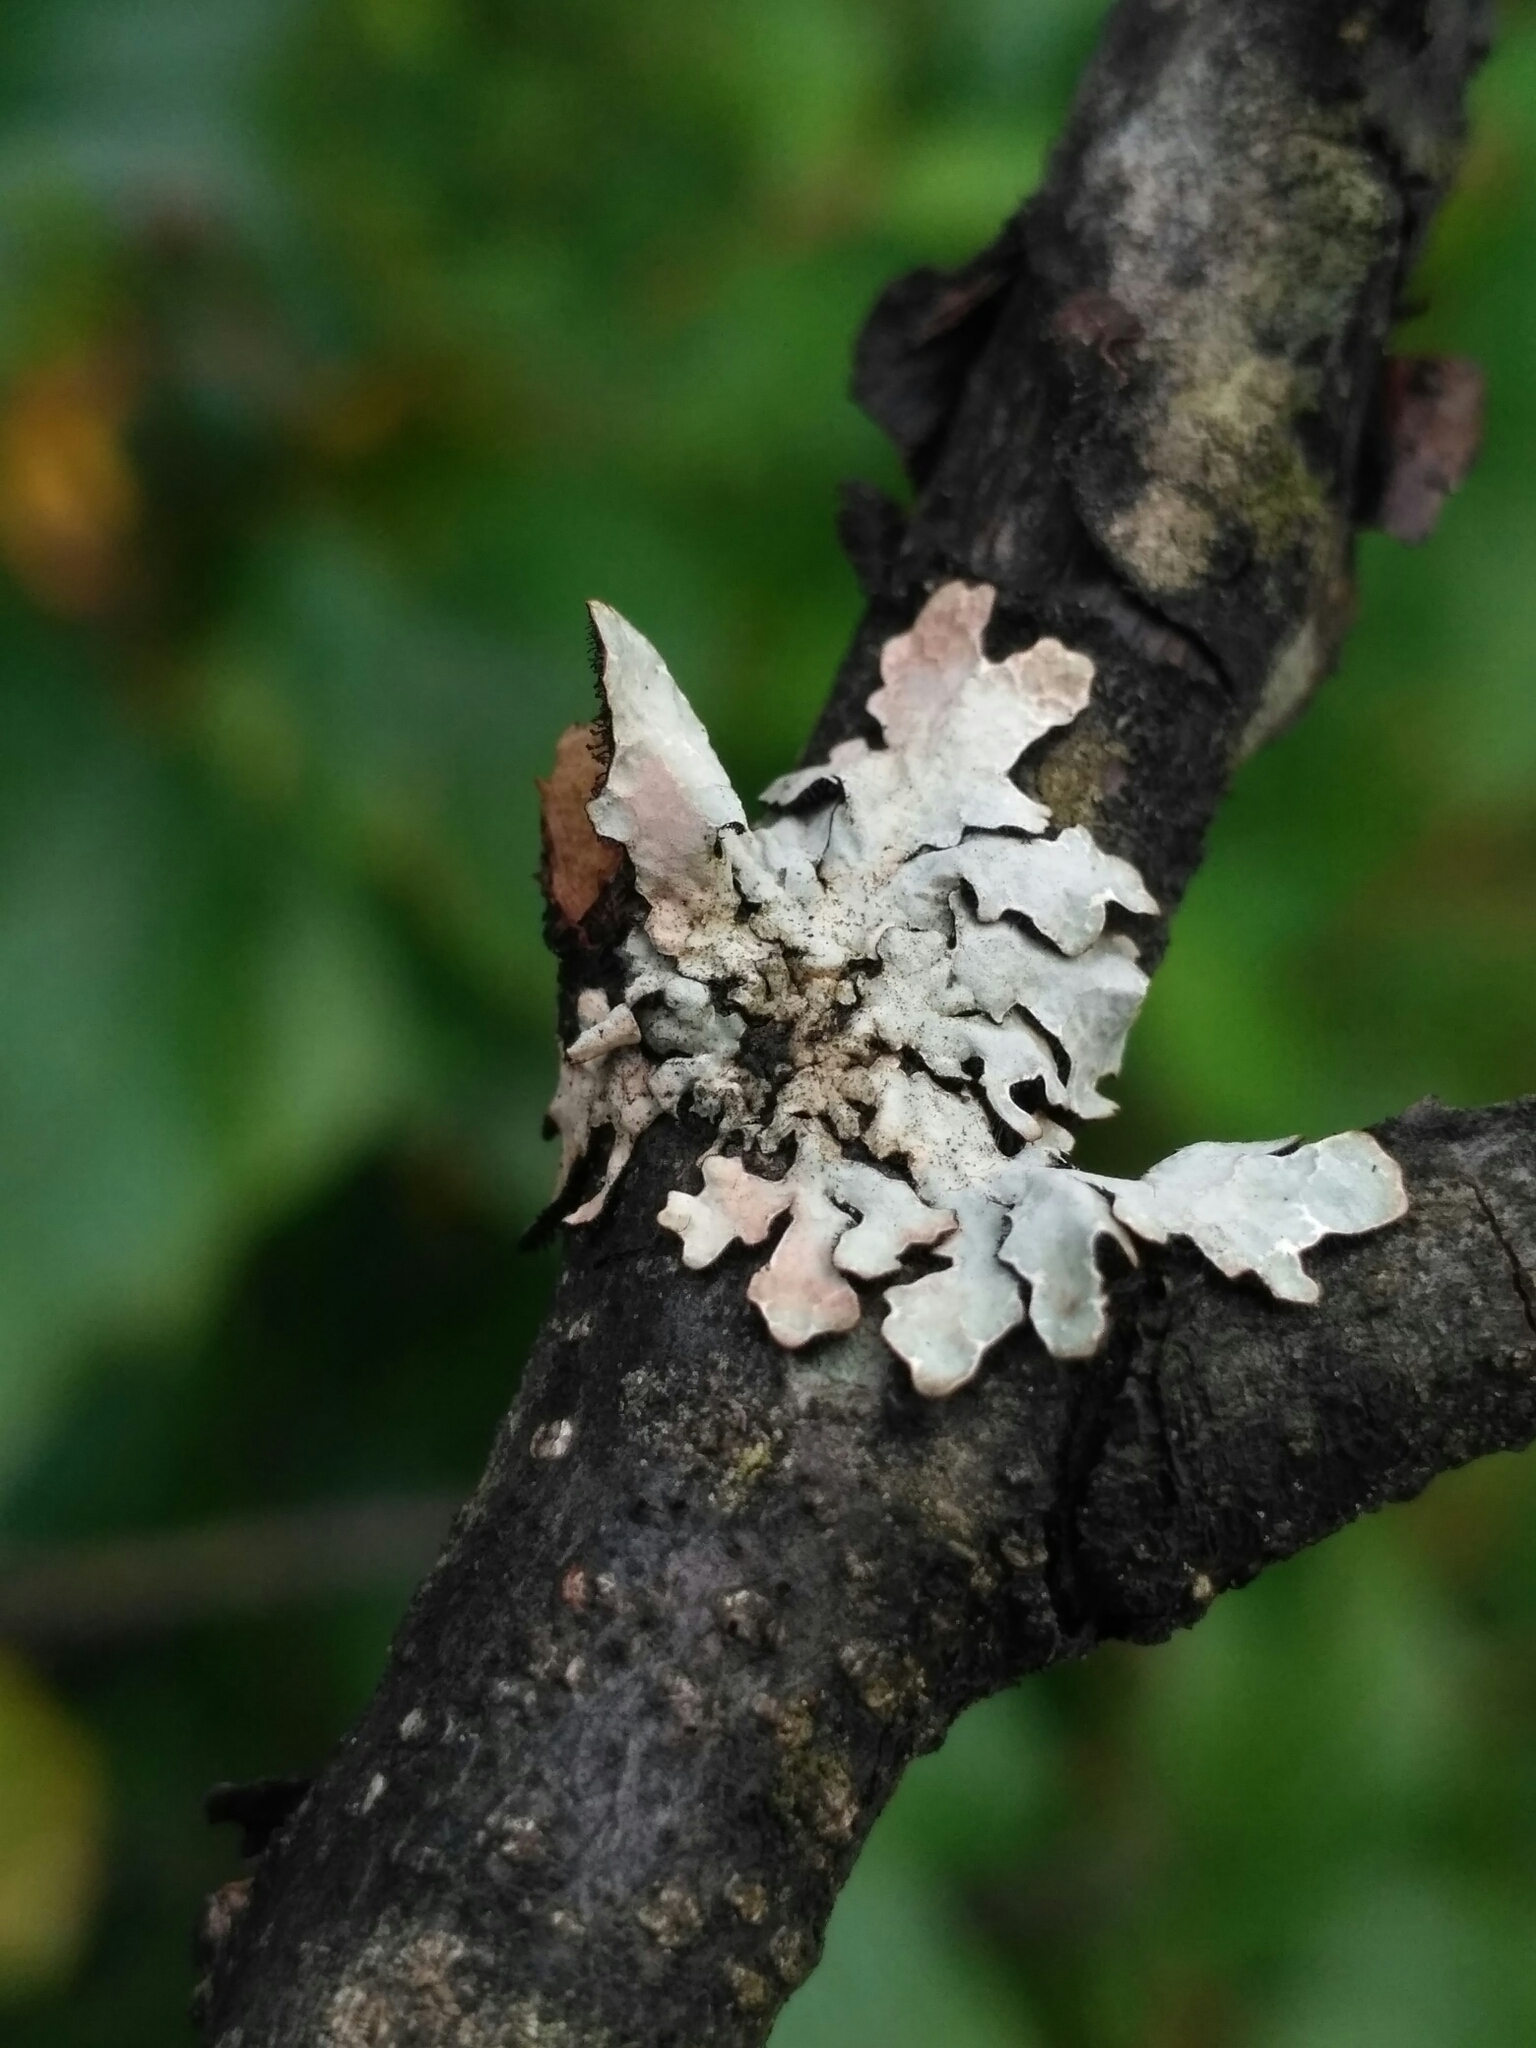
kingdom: Fungi
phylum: Ascomycota
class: Lecanoromycetes
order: Lecanorales
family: Parmeliaceae
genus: Parmelia
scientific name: Parmelia sulcata
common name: Netted shield lichen
